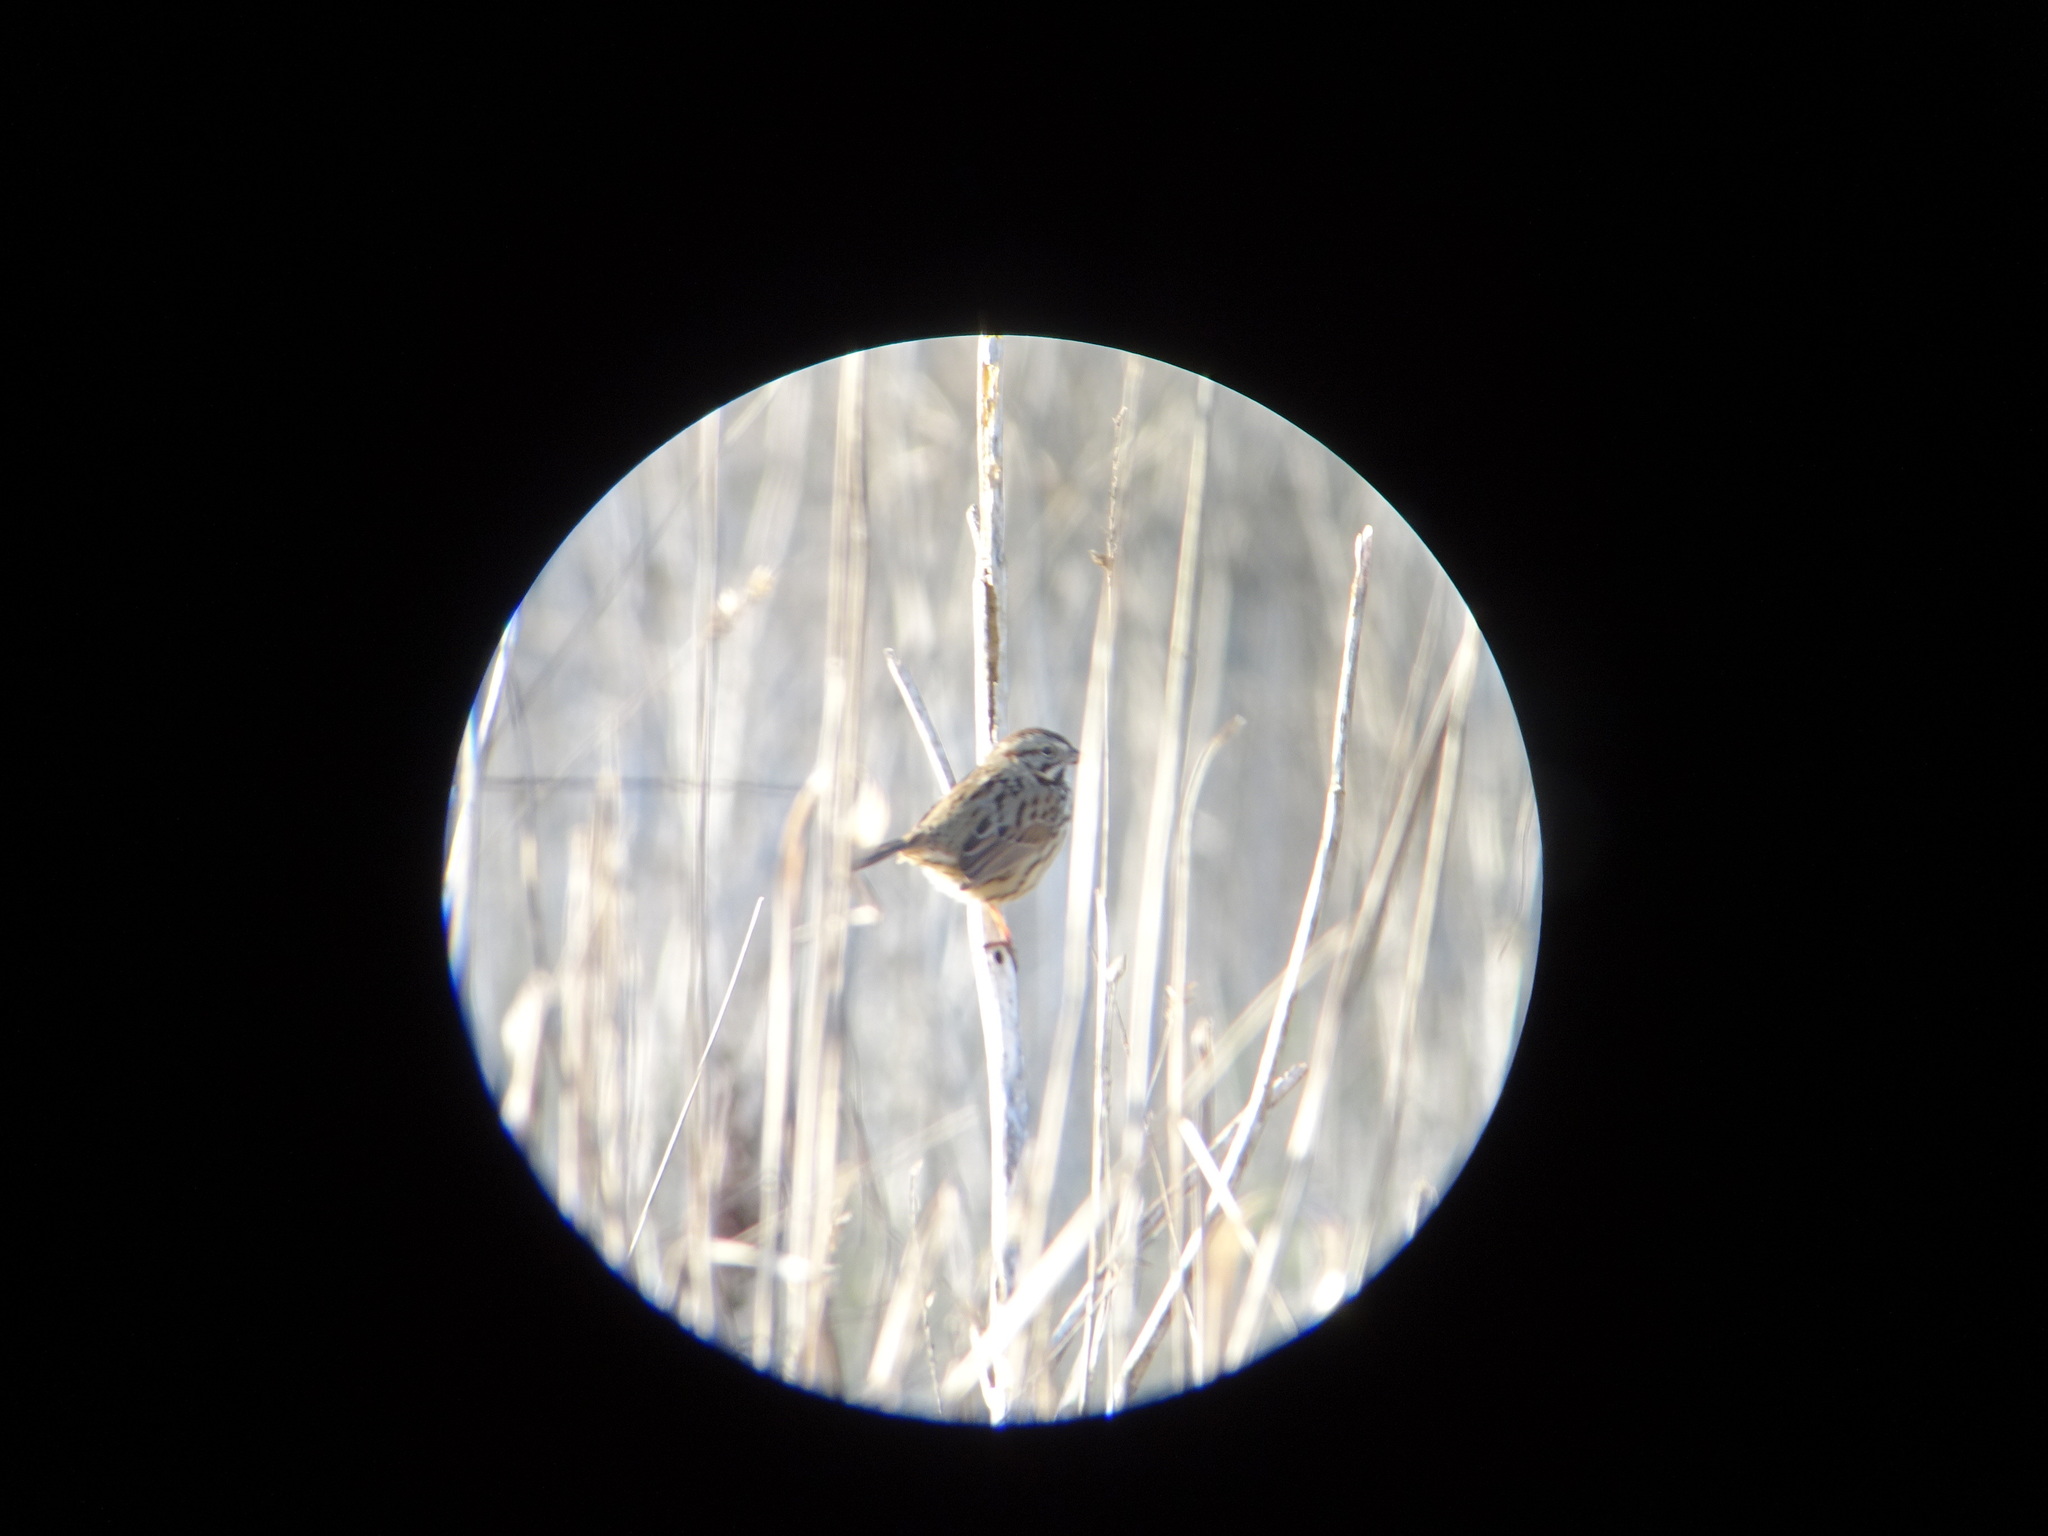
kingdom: Animalia
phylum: Chordata
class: Aves
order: Passeriformes
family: Passerellidae
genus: Melospiza
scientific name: Melospiza melodia
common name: Song sparrow
